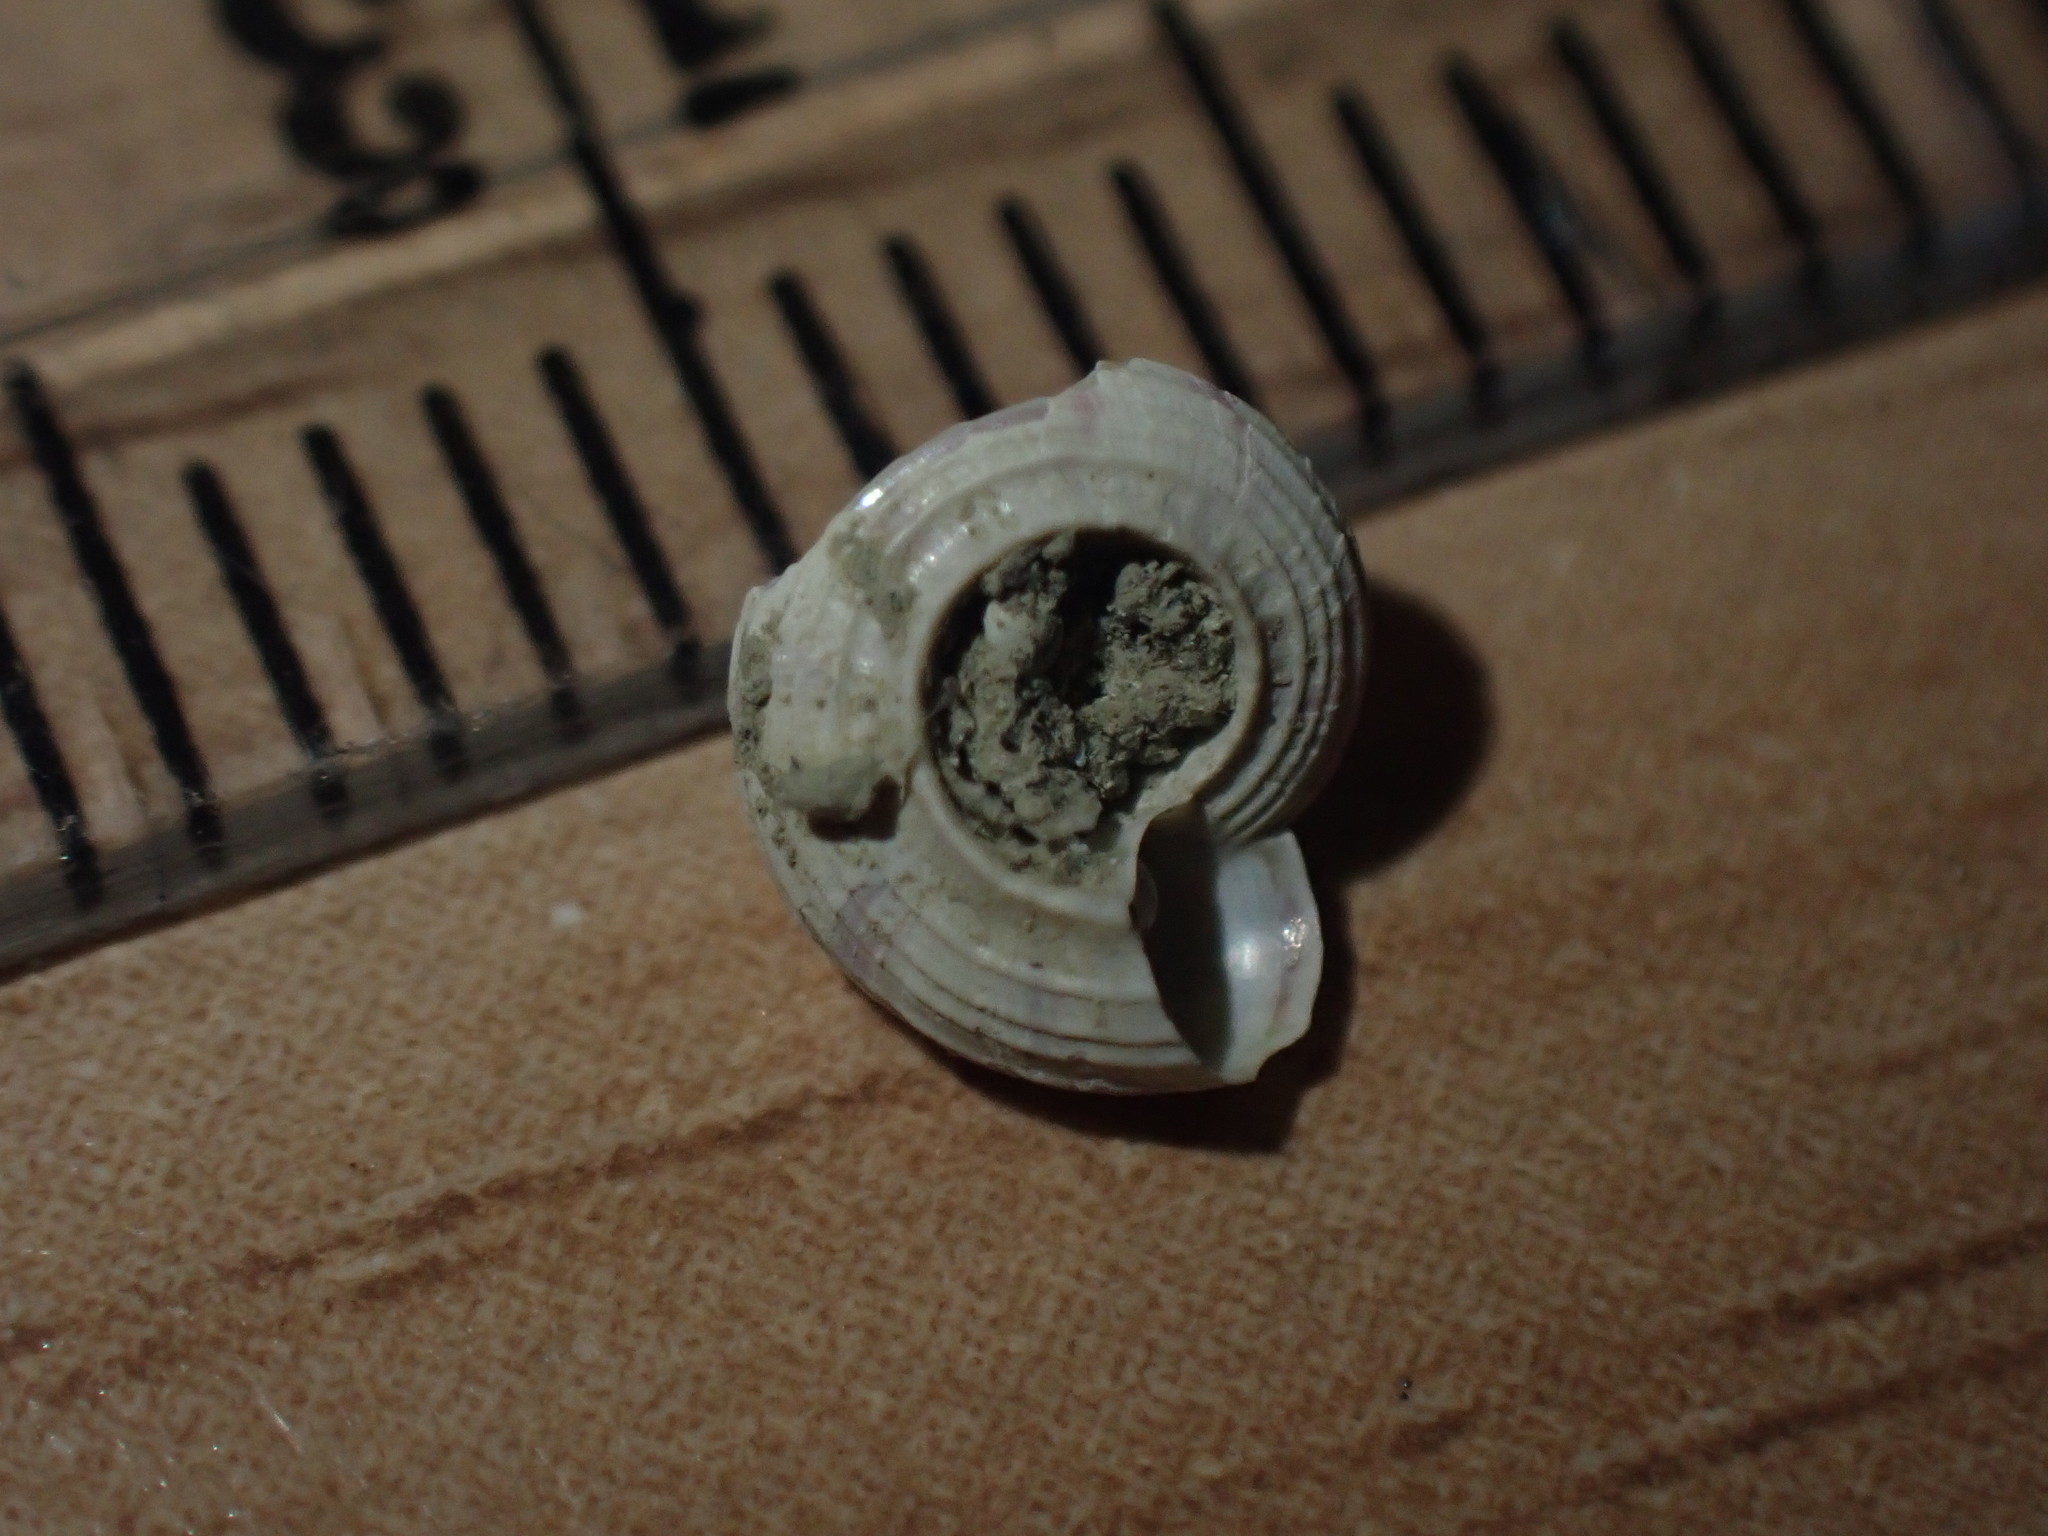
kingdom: Animalia
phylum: Mollusca
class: Gastropoda
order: Trochida
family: Solariellidae
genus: Spectamen
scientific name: Spectamen plicatulum
